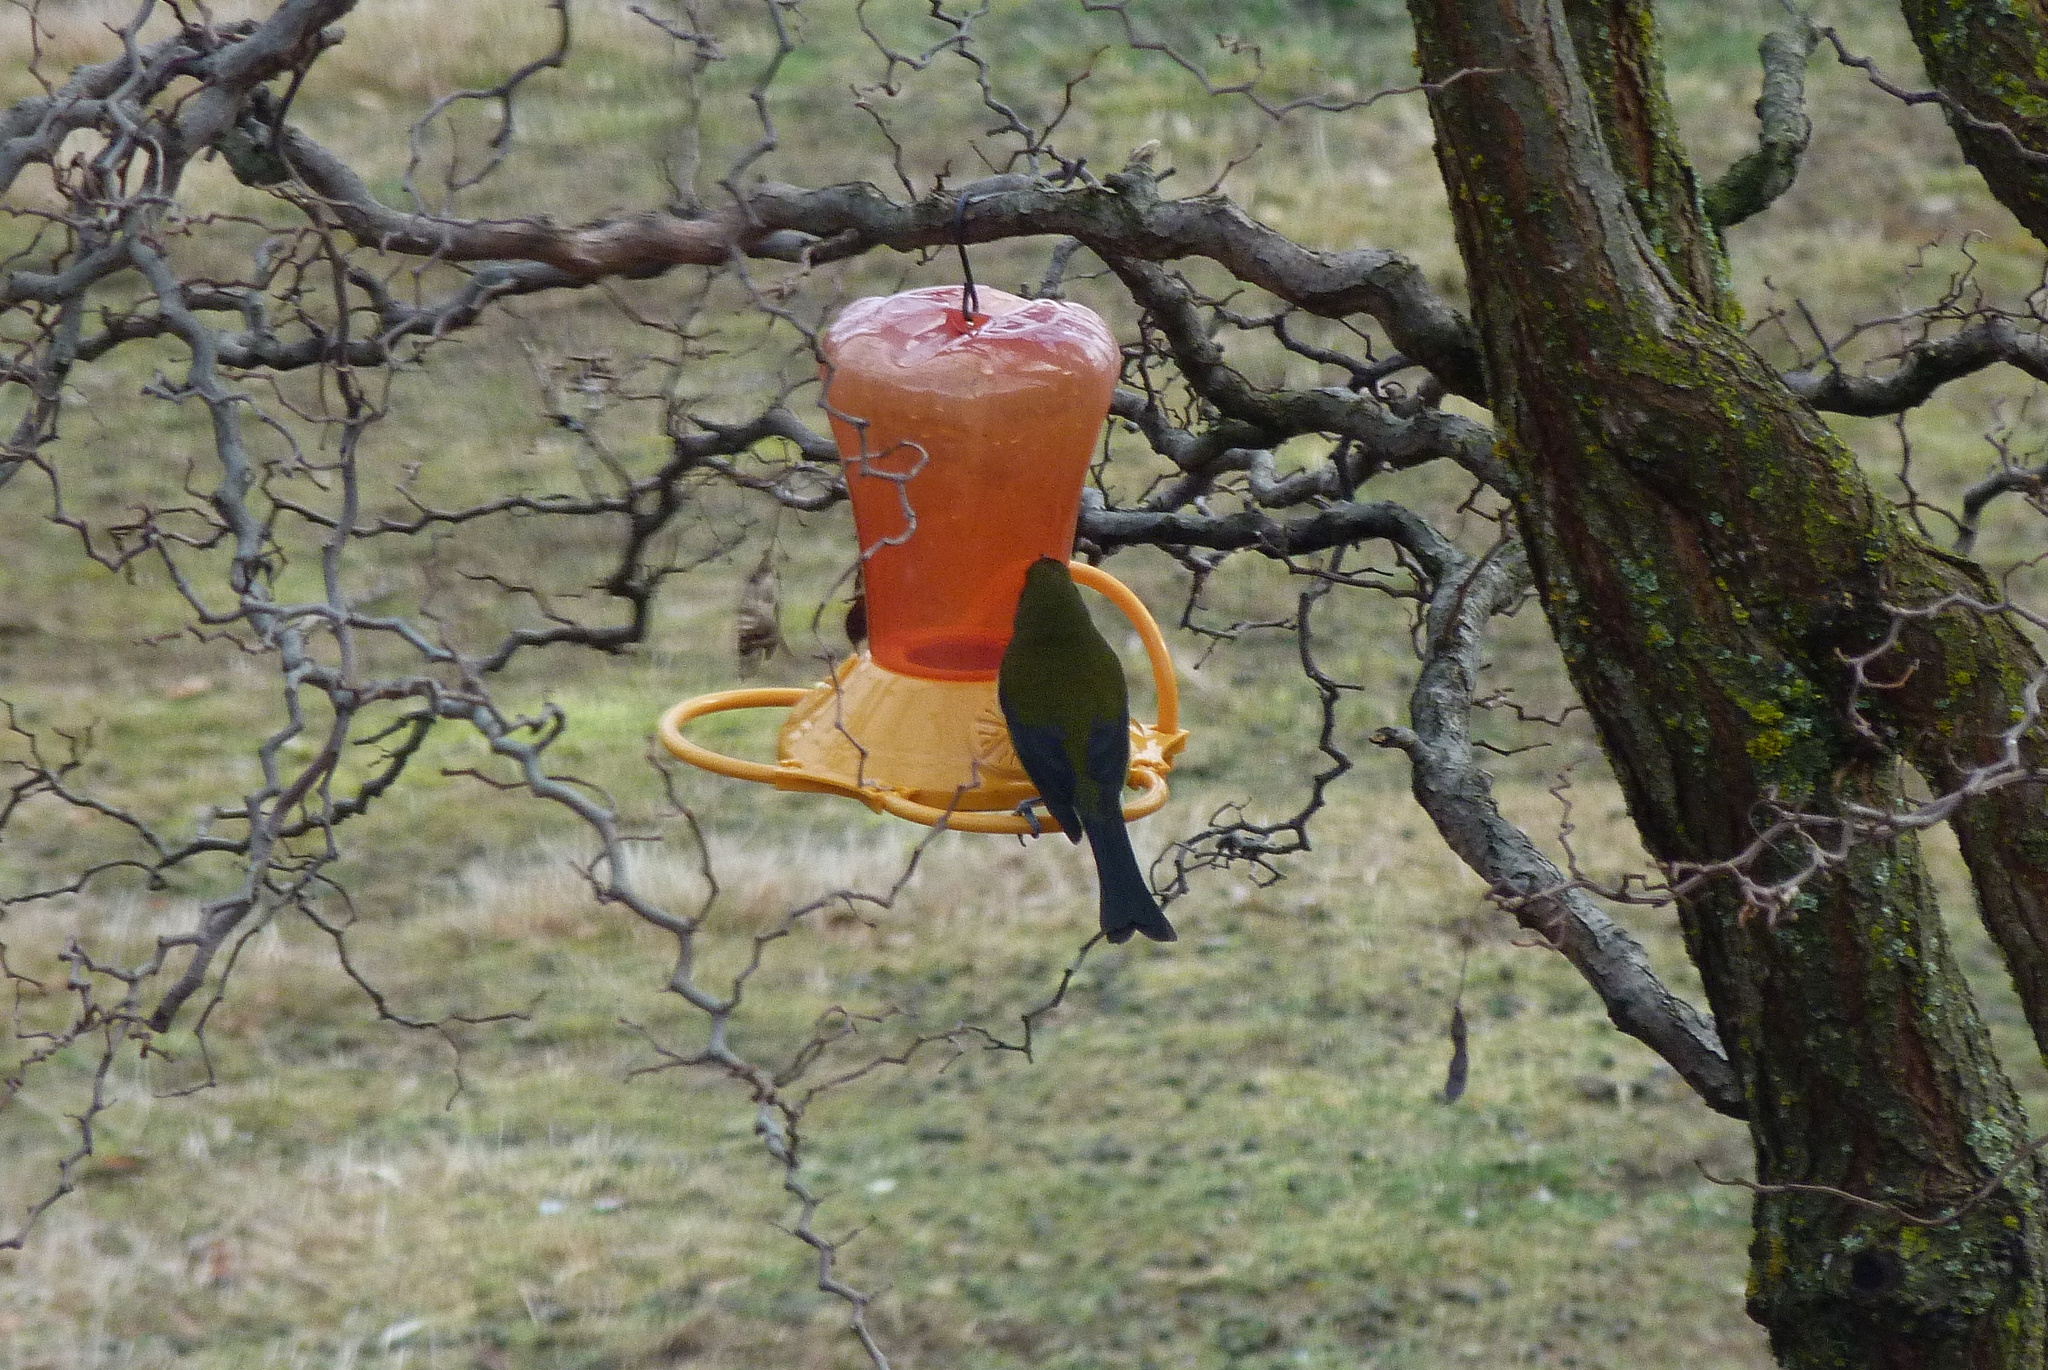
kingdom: Animalia
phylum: Chordata
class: Aves
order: Passeriformes
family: Meliphagidae
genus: Anthornis
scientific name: Anthornis melanura
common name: New zealand bellbird
